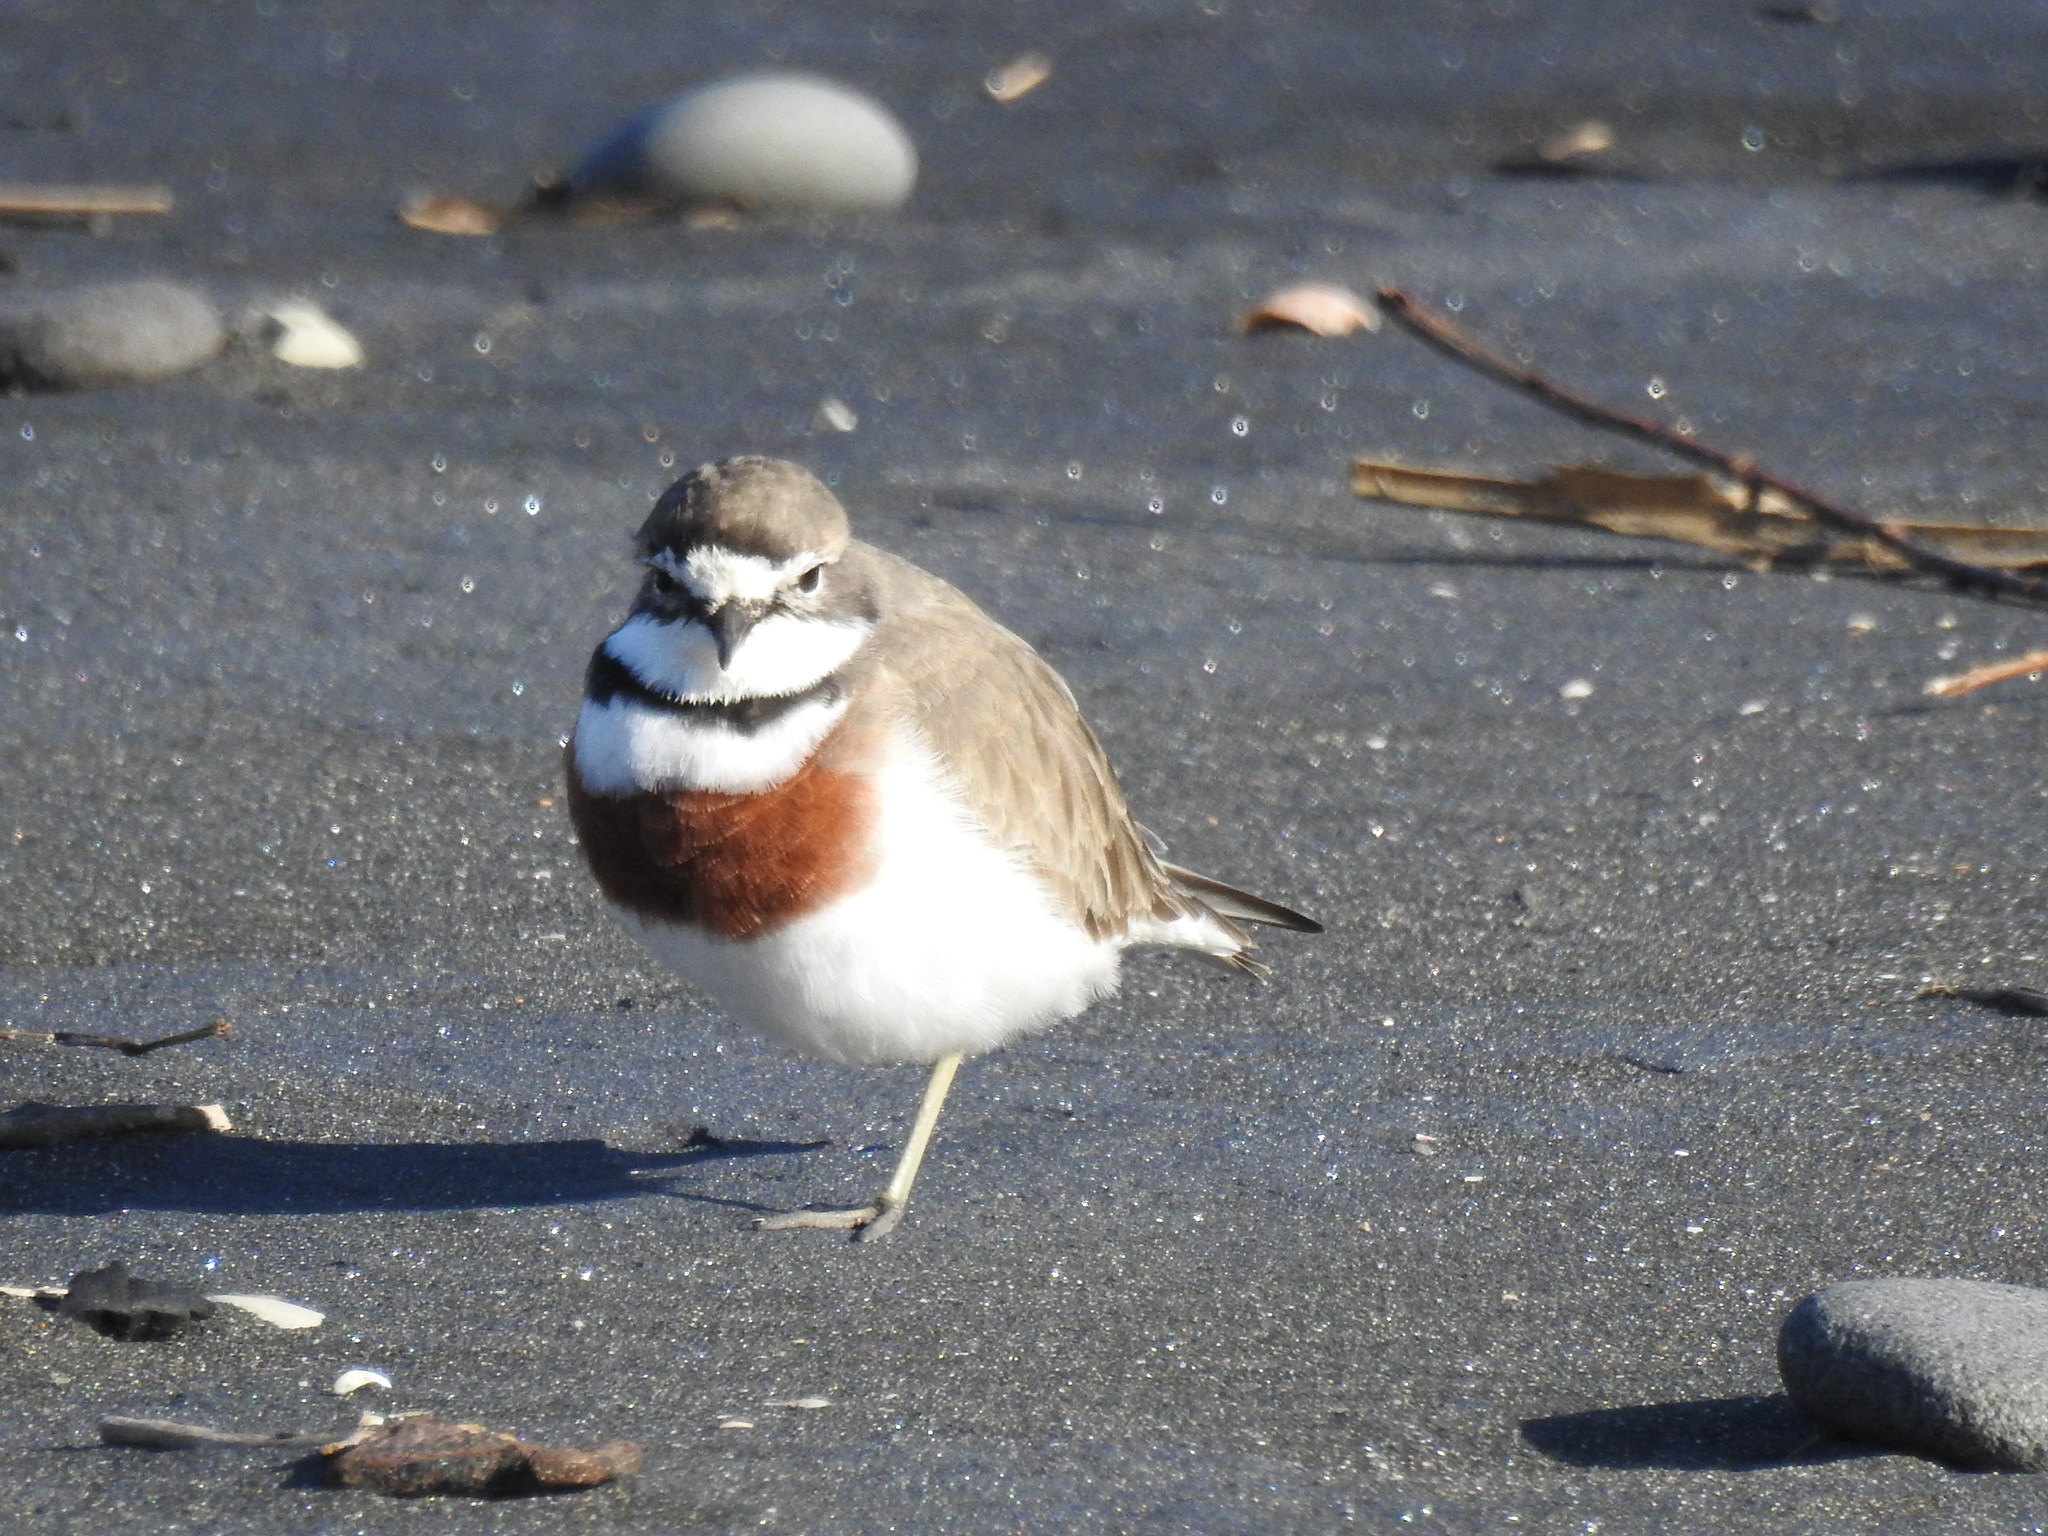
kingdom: Animalia
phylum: Chordata
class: Aves
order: Charadriiformes
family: Charadriidae
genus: Anarhynchus
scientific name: Anarhynchus
